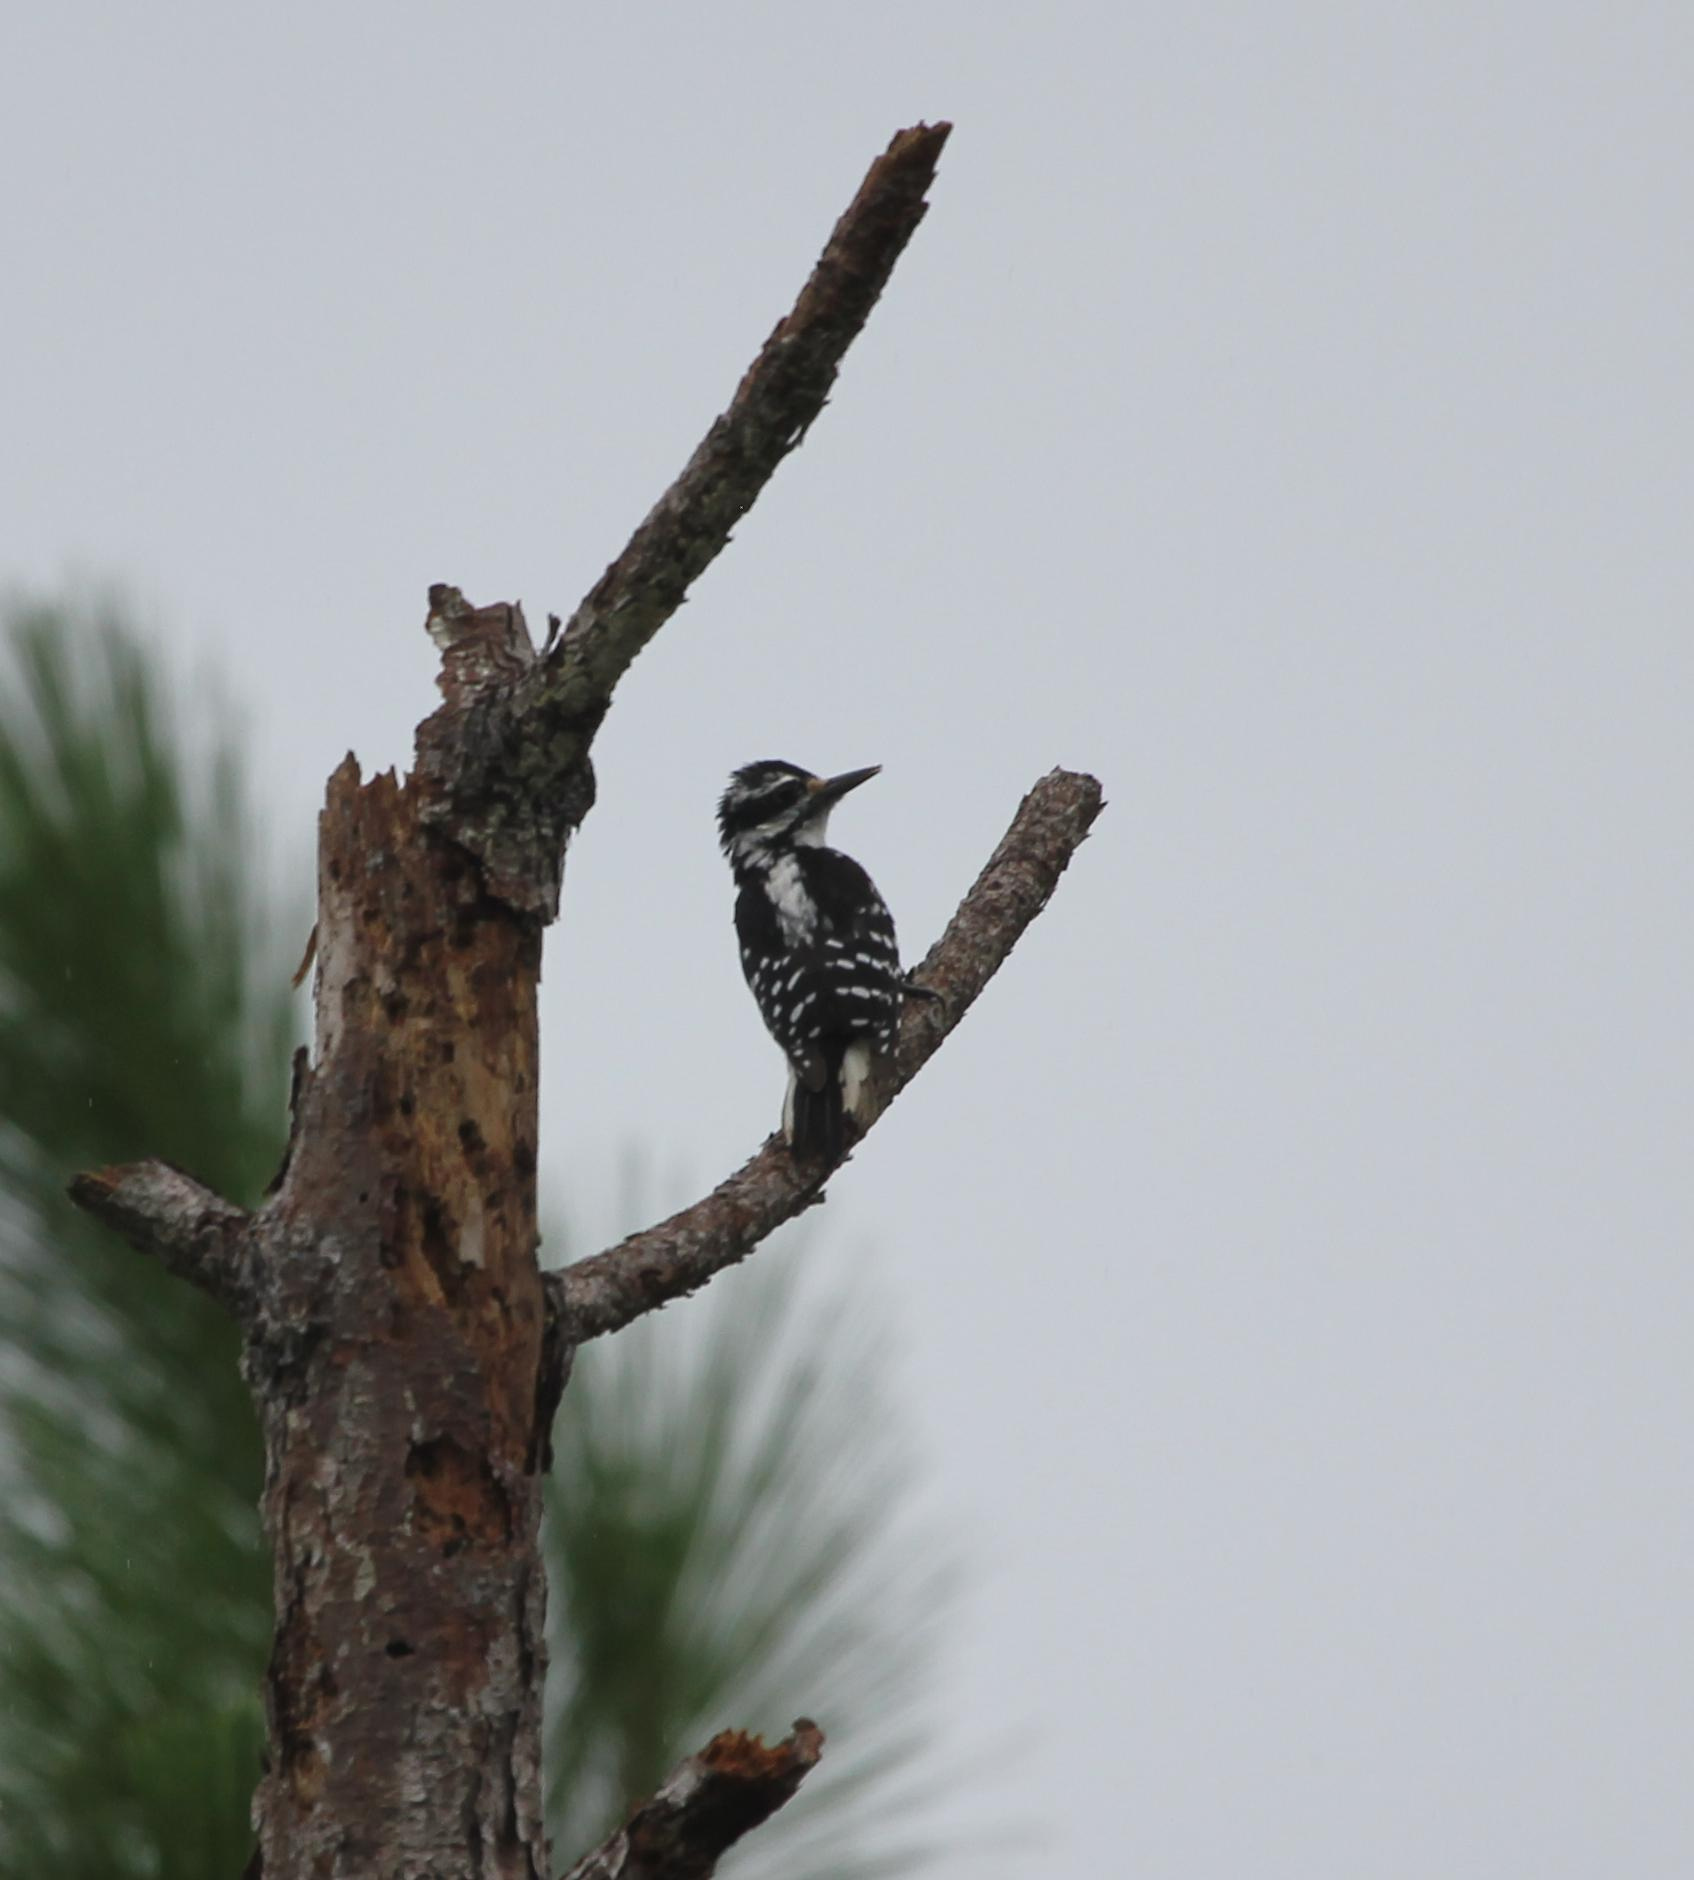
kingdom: Animalia
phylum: Chordata
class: Aves
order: Piciformes
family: Picidae
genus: Leuconotopicus
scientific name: Leuconotopicus villosus
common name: Hairy woodpecker
